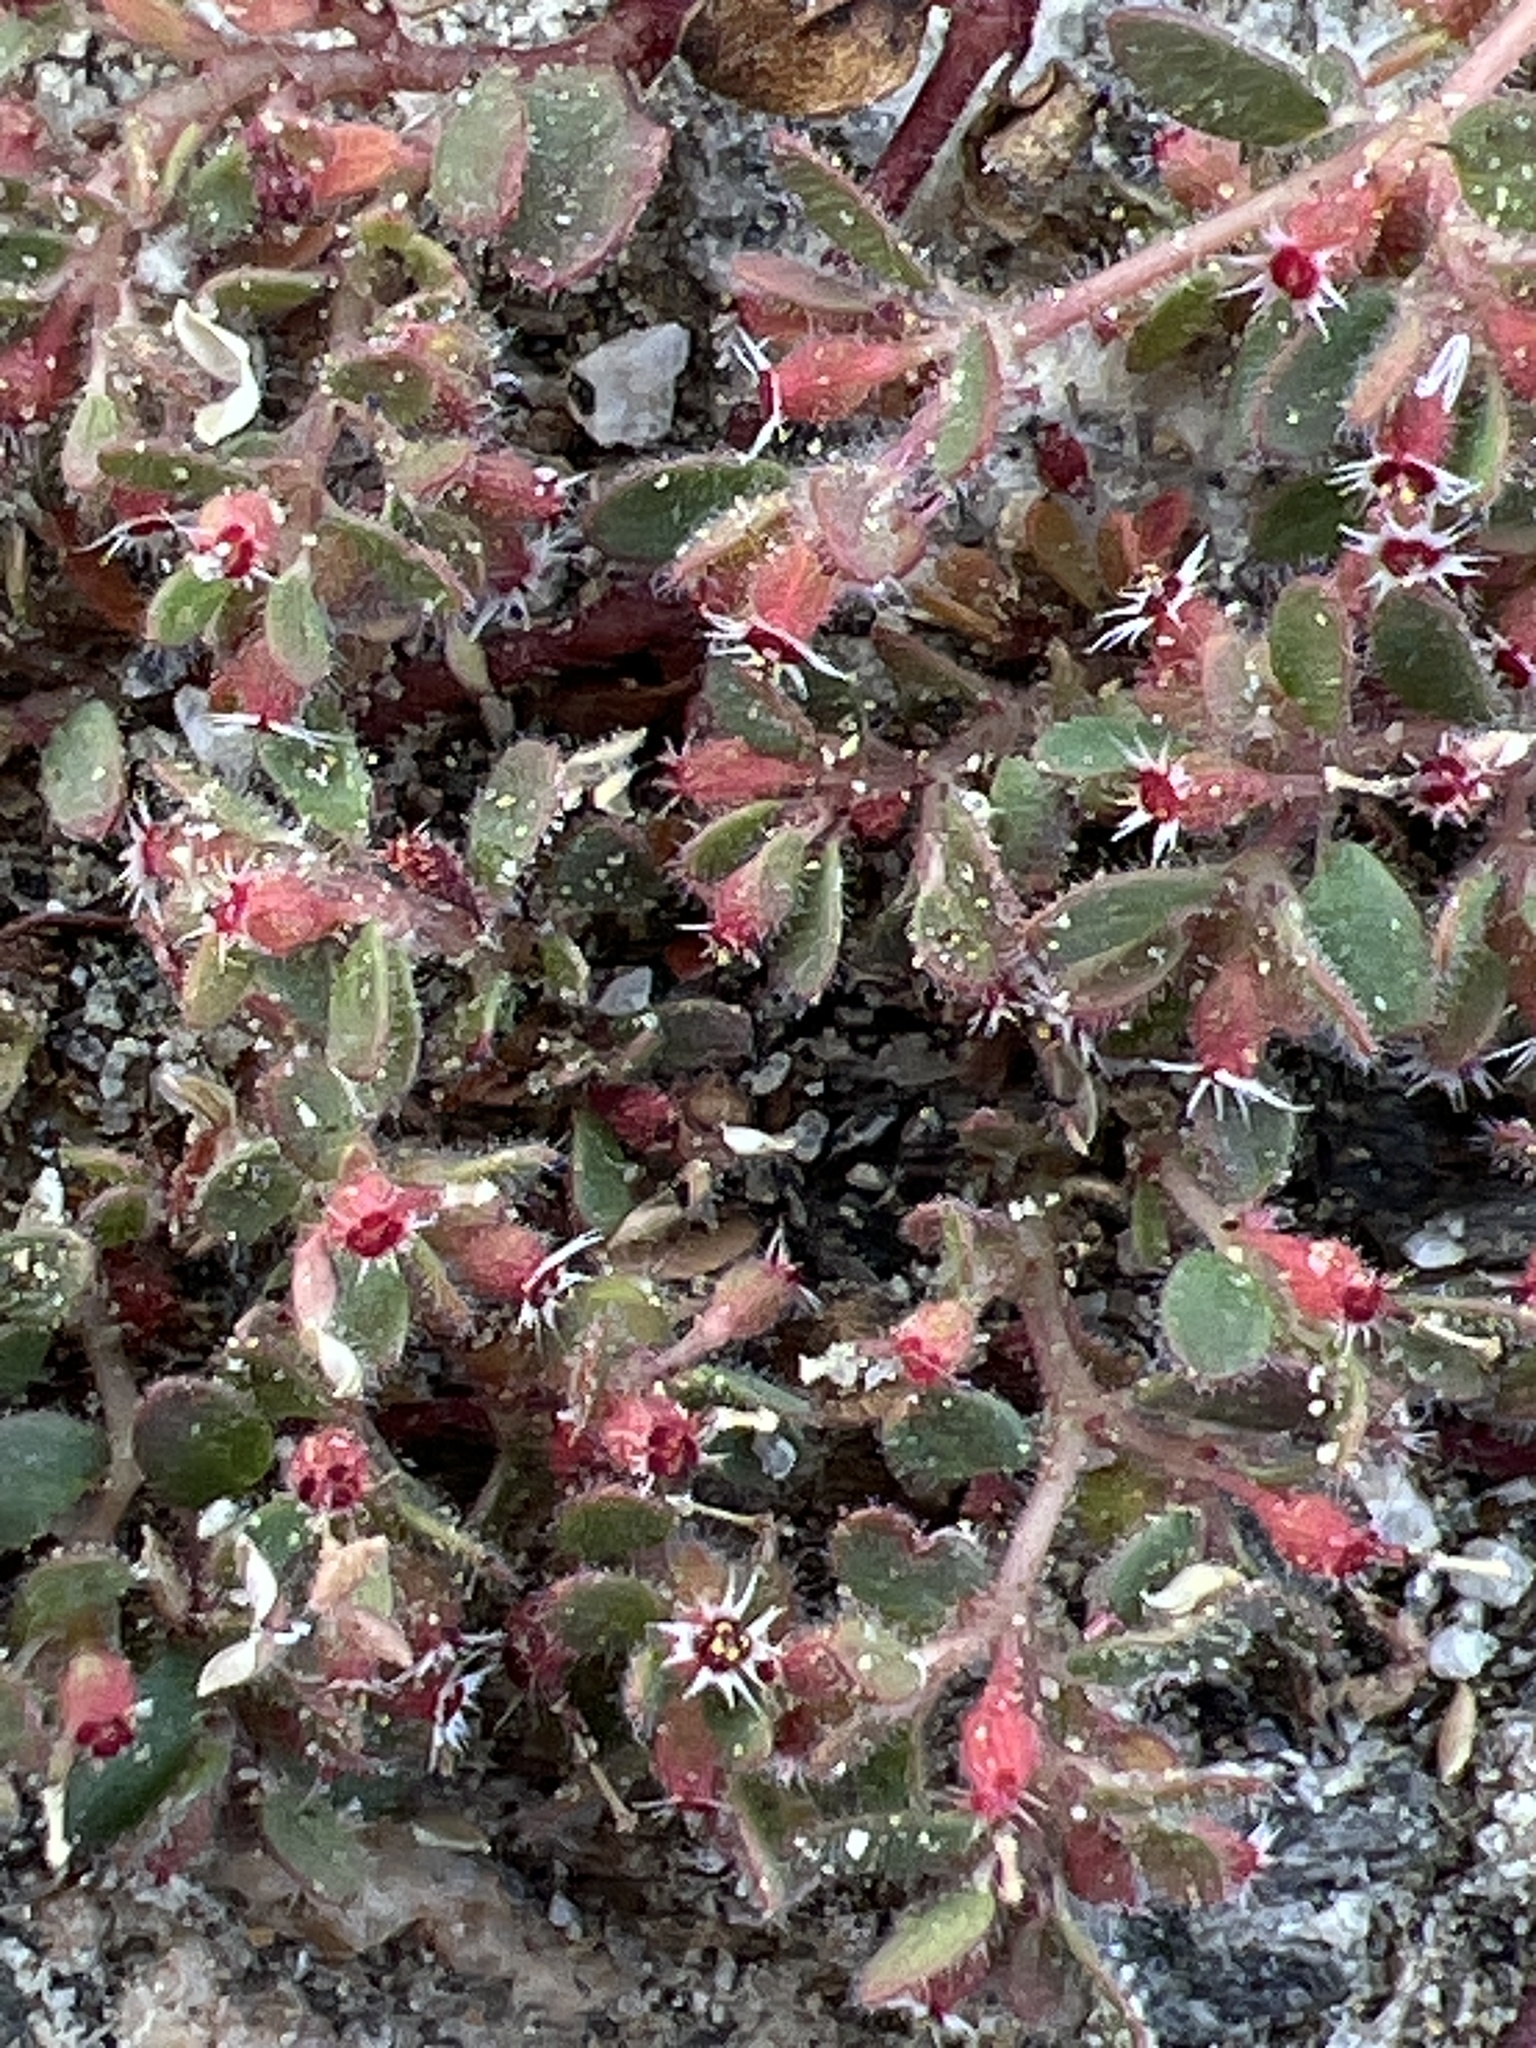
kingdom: Plantae
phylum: Tracheophyta
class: Magnoliopsida
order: Malpighiales
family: Euphorbiaceae
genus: Euphorbia
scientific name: Euphorbia setiloba
